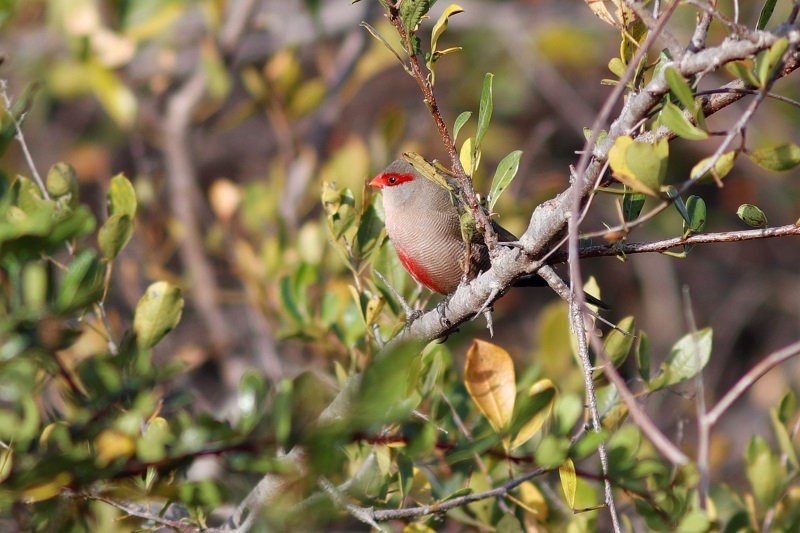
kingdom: Animalia
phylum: Chordata
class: Aves
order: Passeriformes
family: Estrildidae
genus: Estrilda
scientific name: Estrilda astrild
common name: Common waxbill
